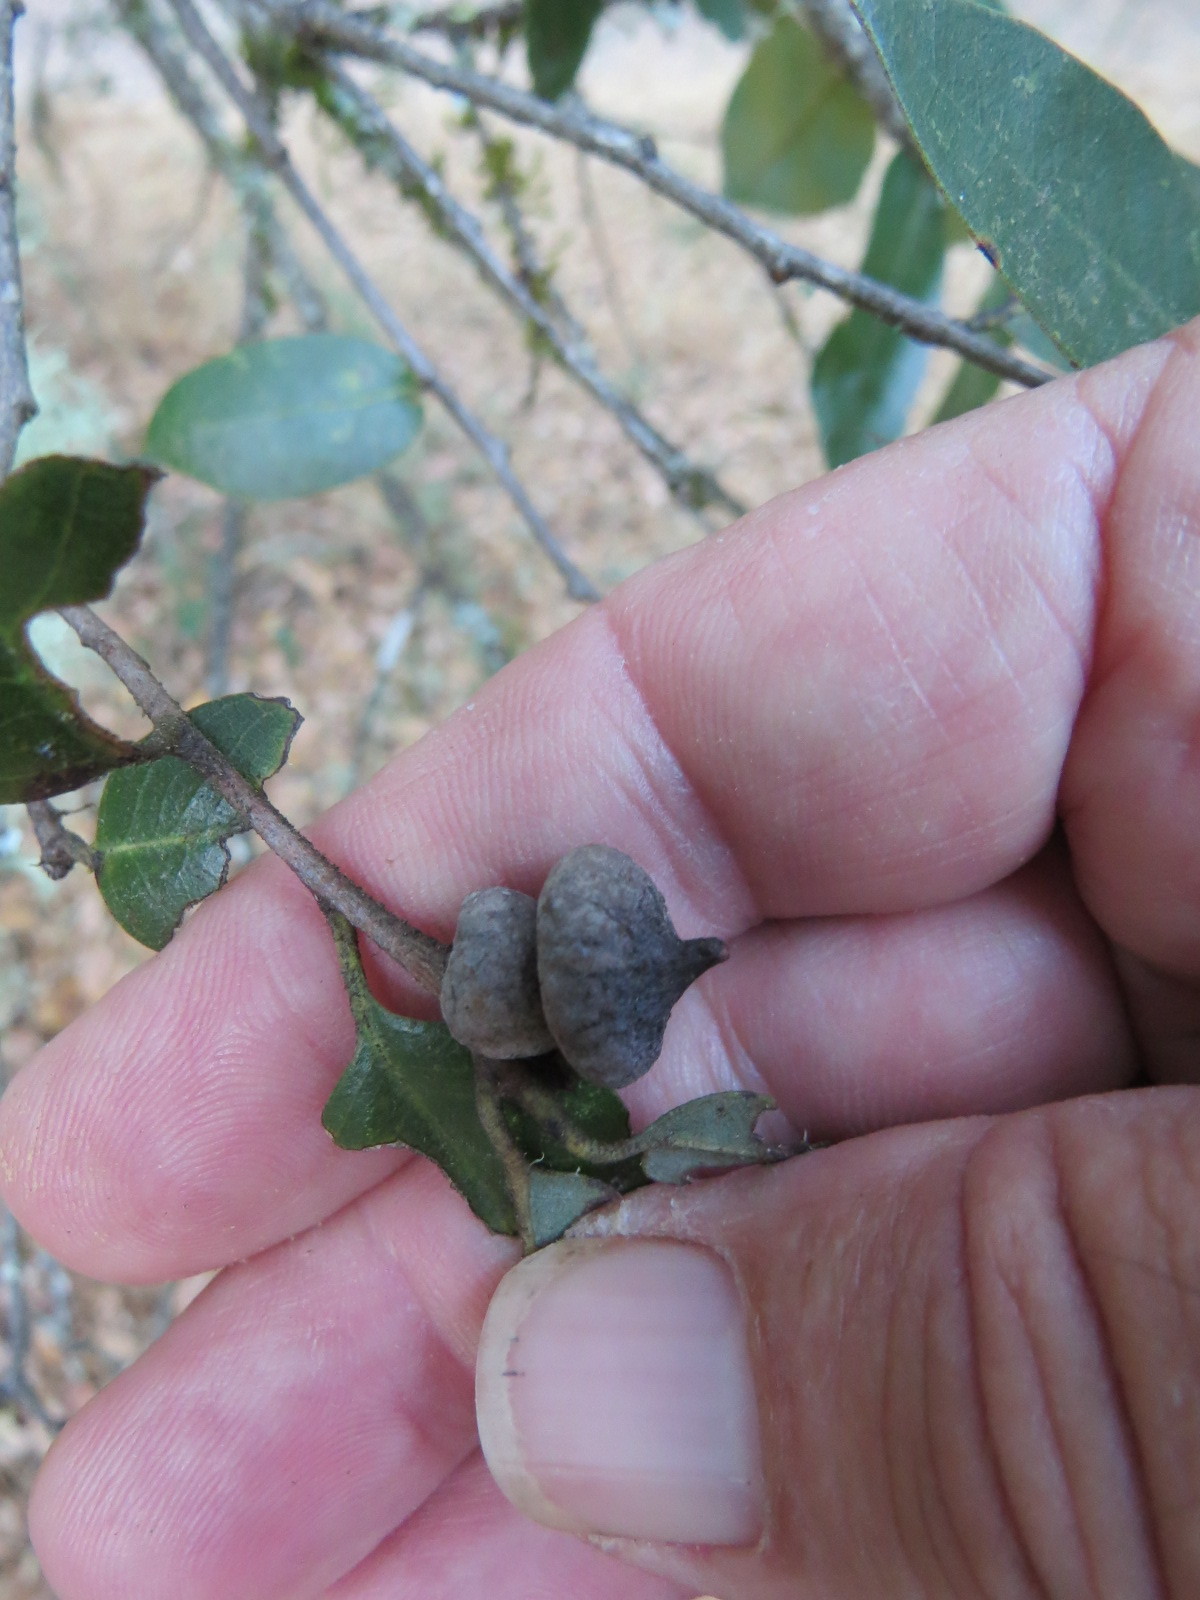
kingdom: Animalia
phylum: Arthropoda
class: Insecta
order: Hymenoptera
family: Cynipidae
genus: Heteroecus
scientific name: Heteroecus
